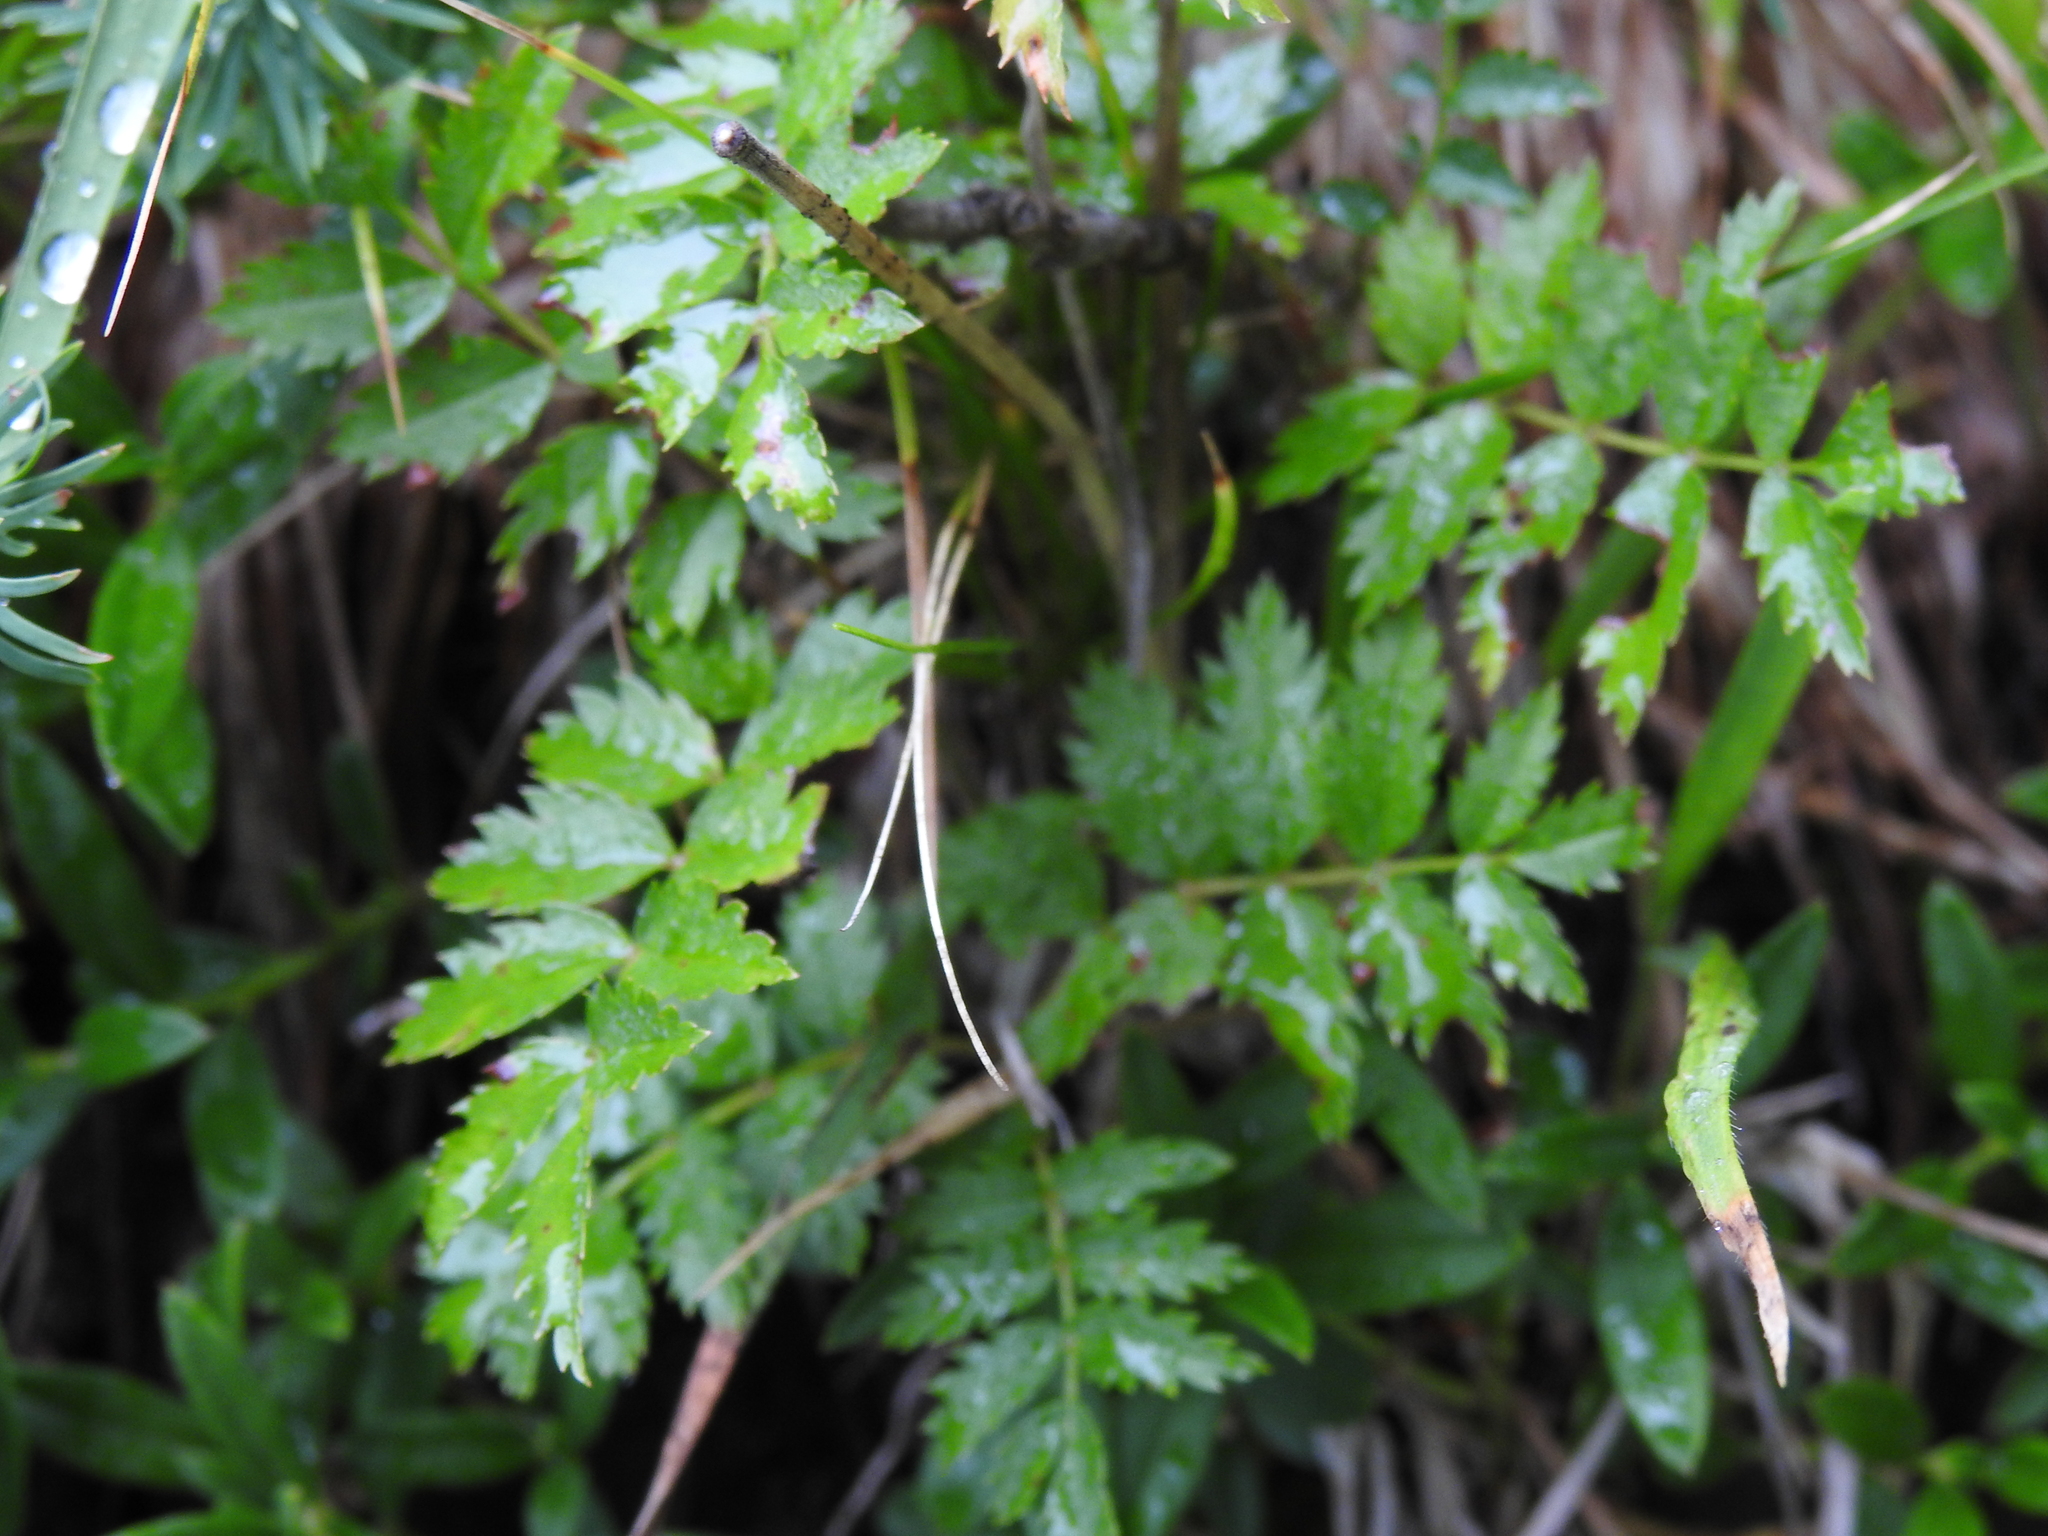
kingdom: Plantae
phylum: Tracheophyta
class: Magnoliopsida
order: Rosales
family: Rosaceae
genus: Sorbus
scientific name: Sorbus aucuparia
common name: Rowan
